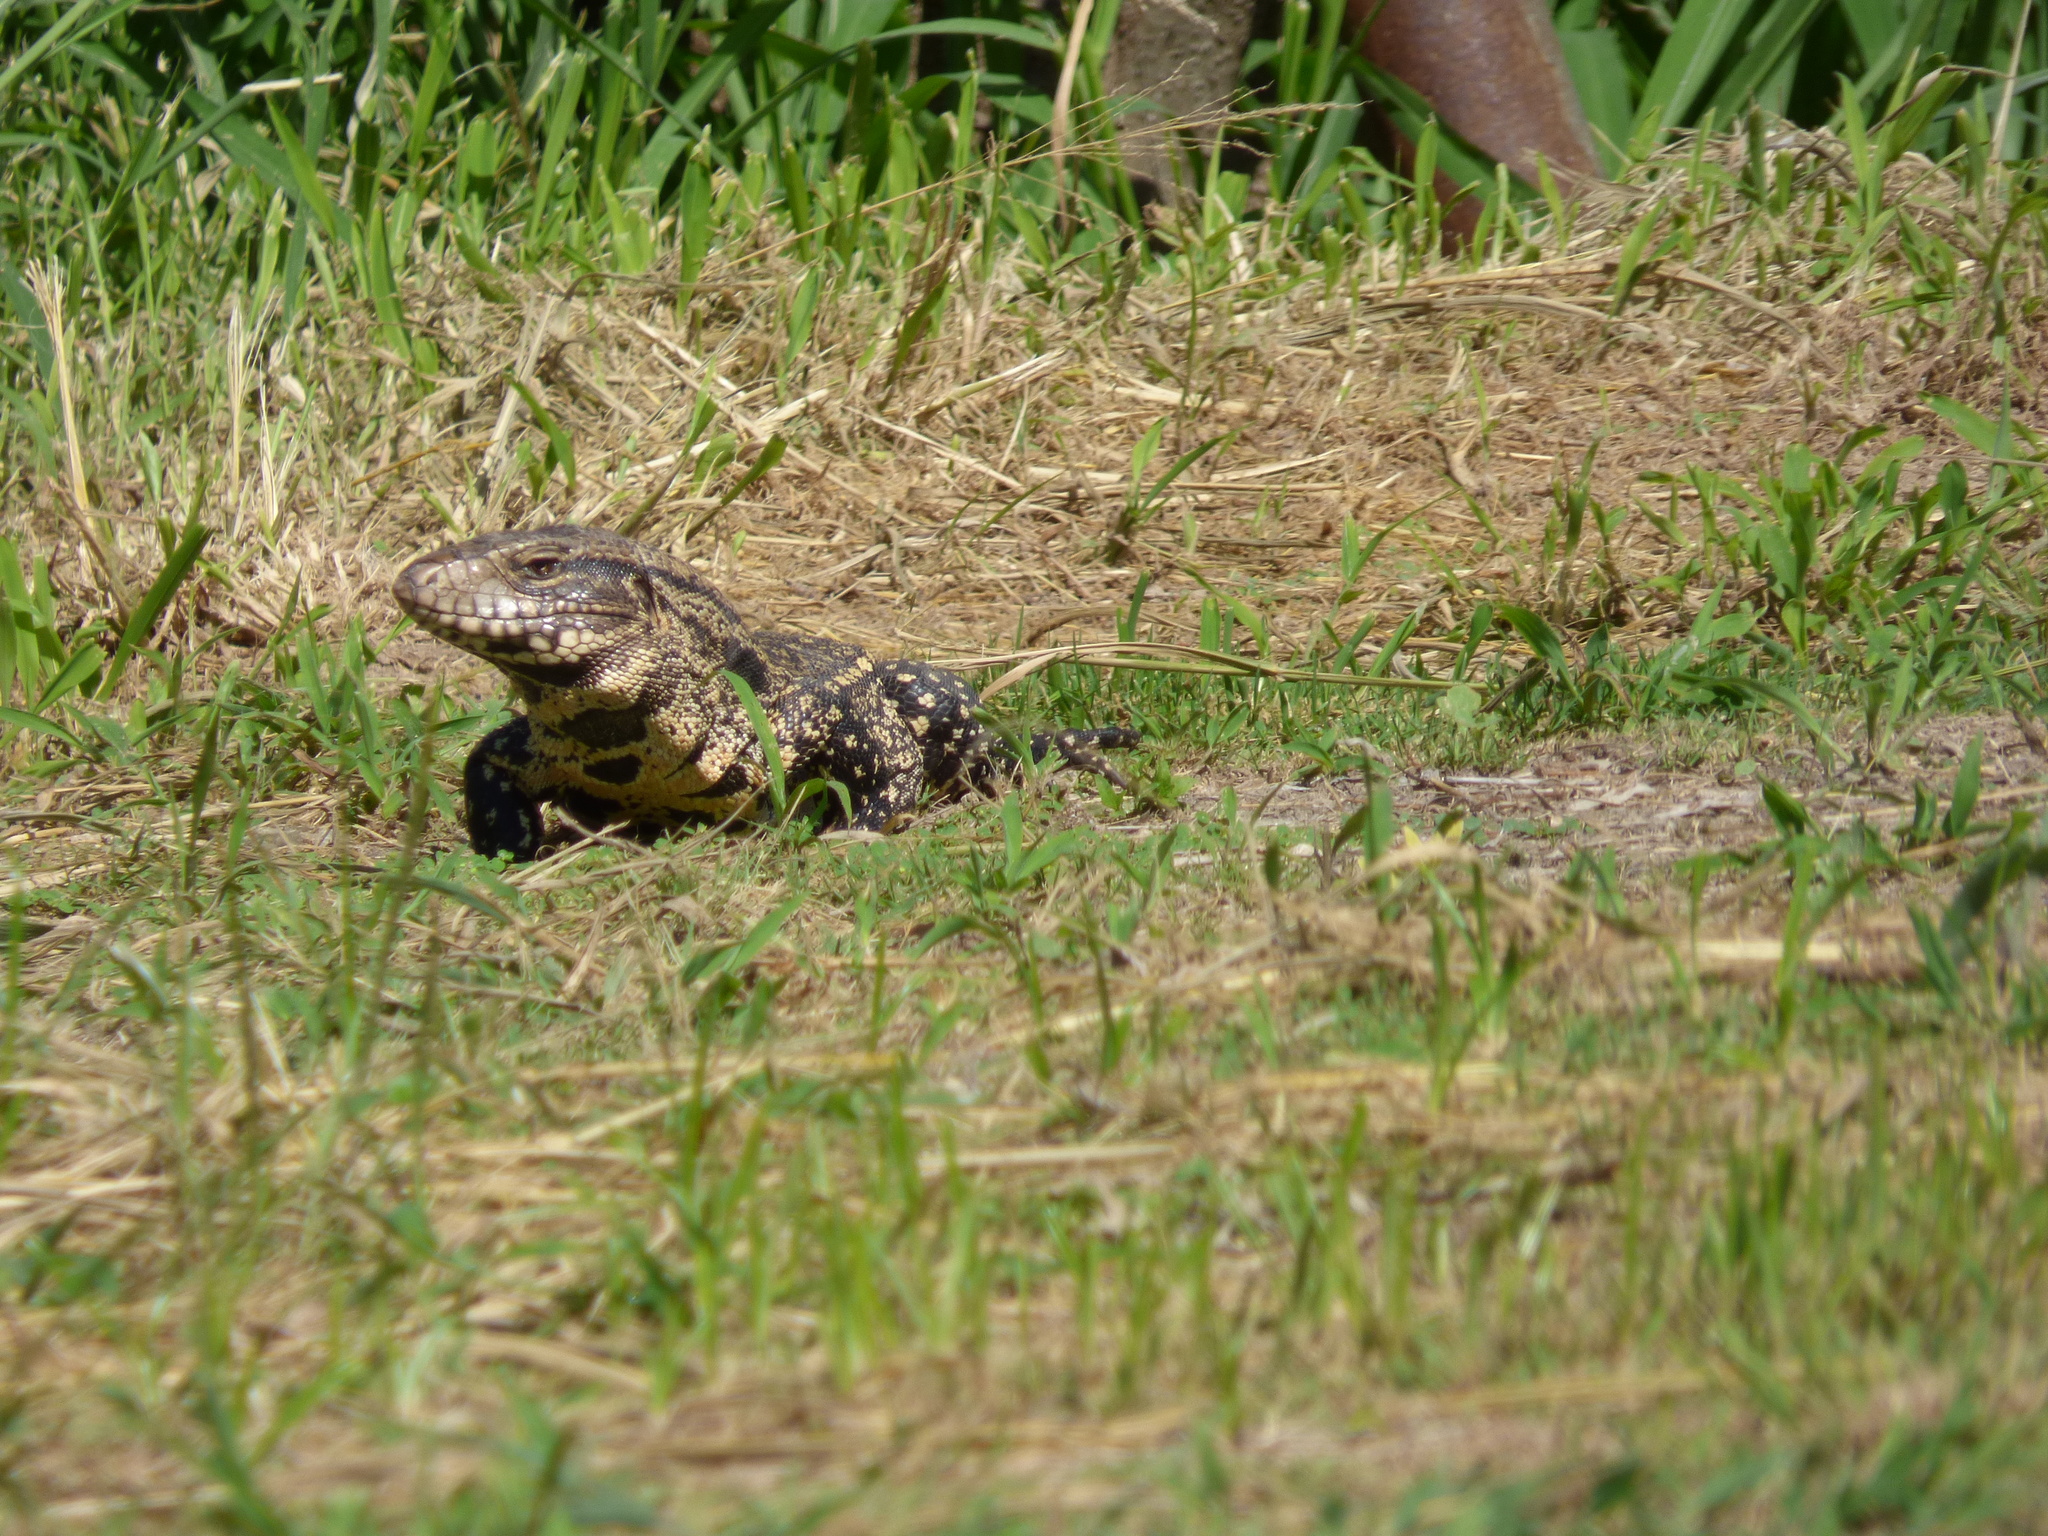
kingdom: Animalia
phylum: Chordata
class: Squamata
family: Teiidae
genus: Salvator
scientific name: Salvator merianae
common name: Argentine black and white tegu
